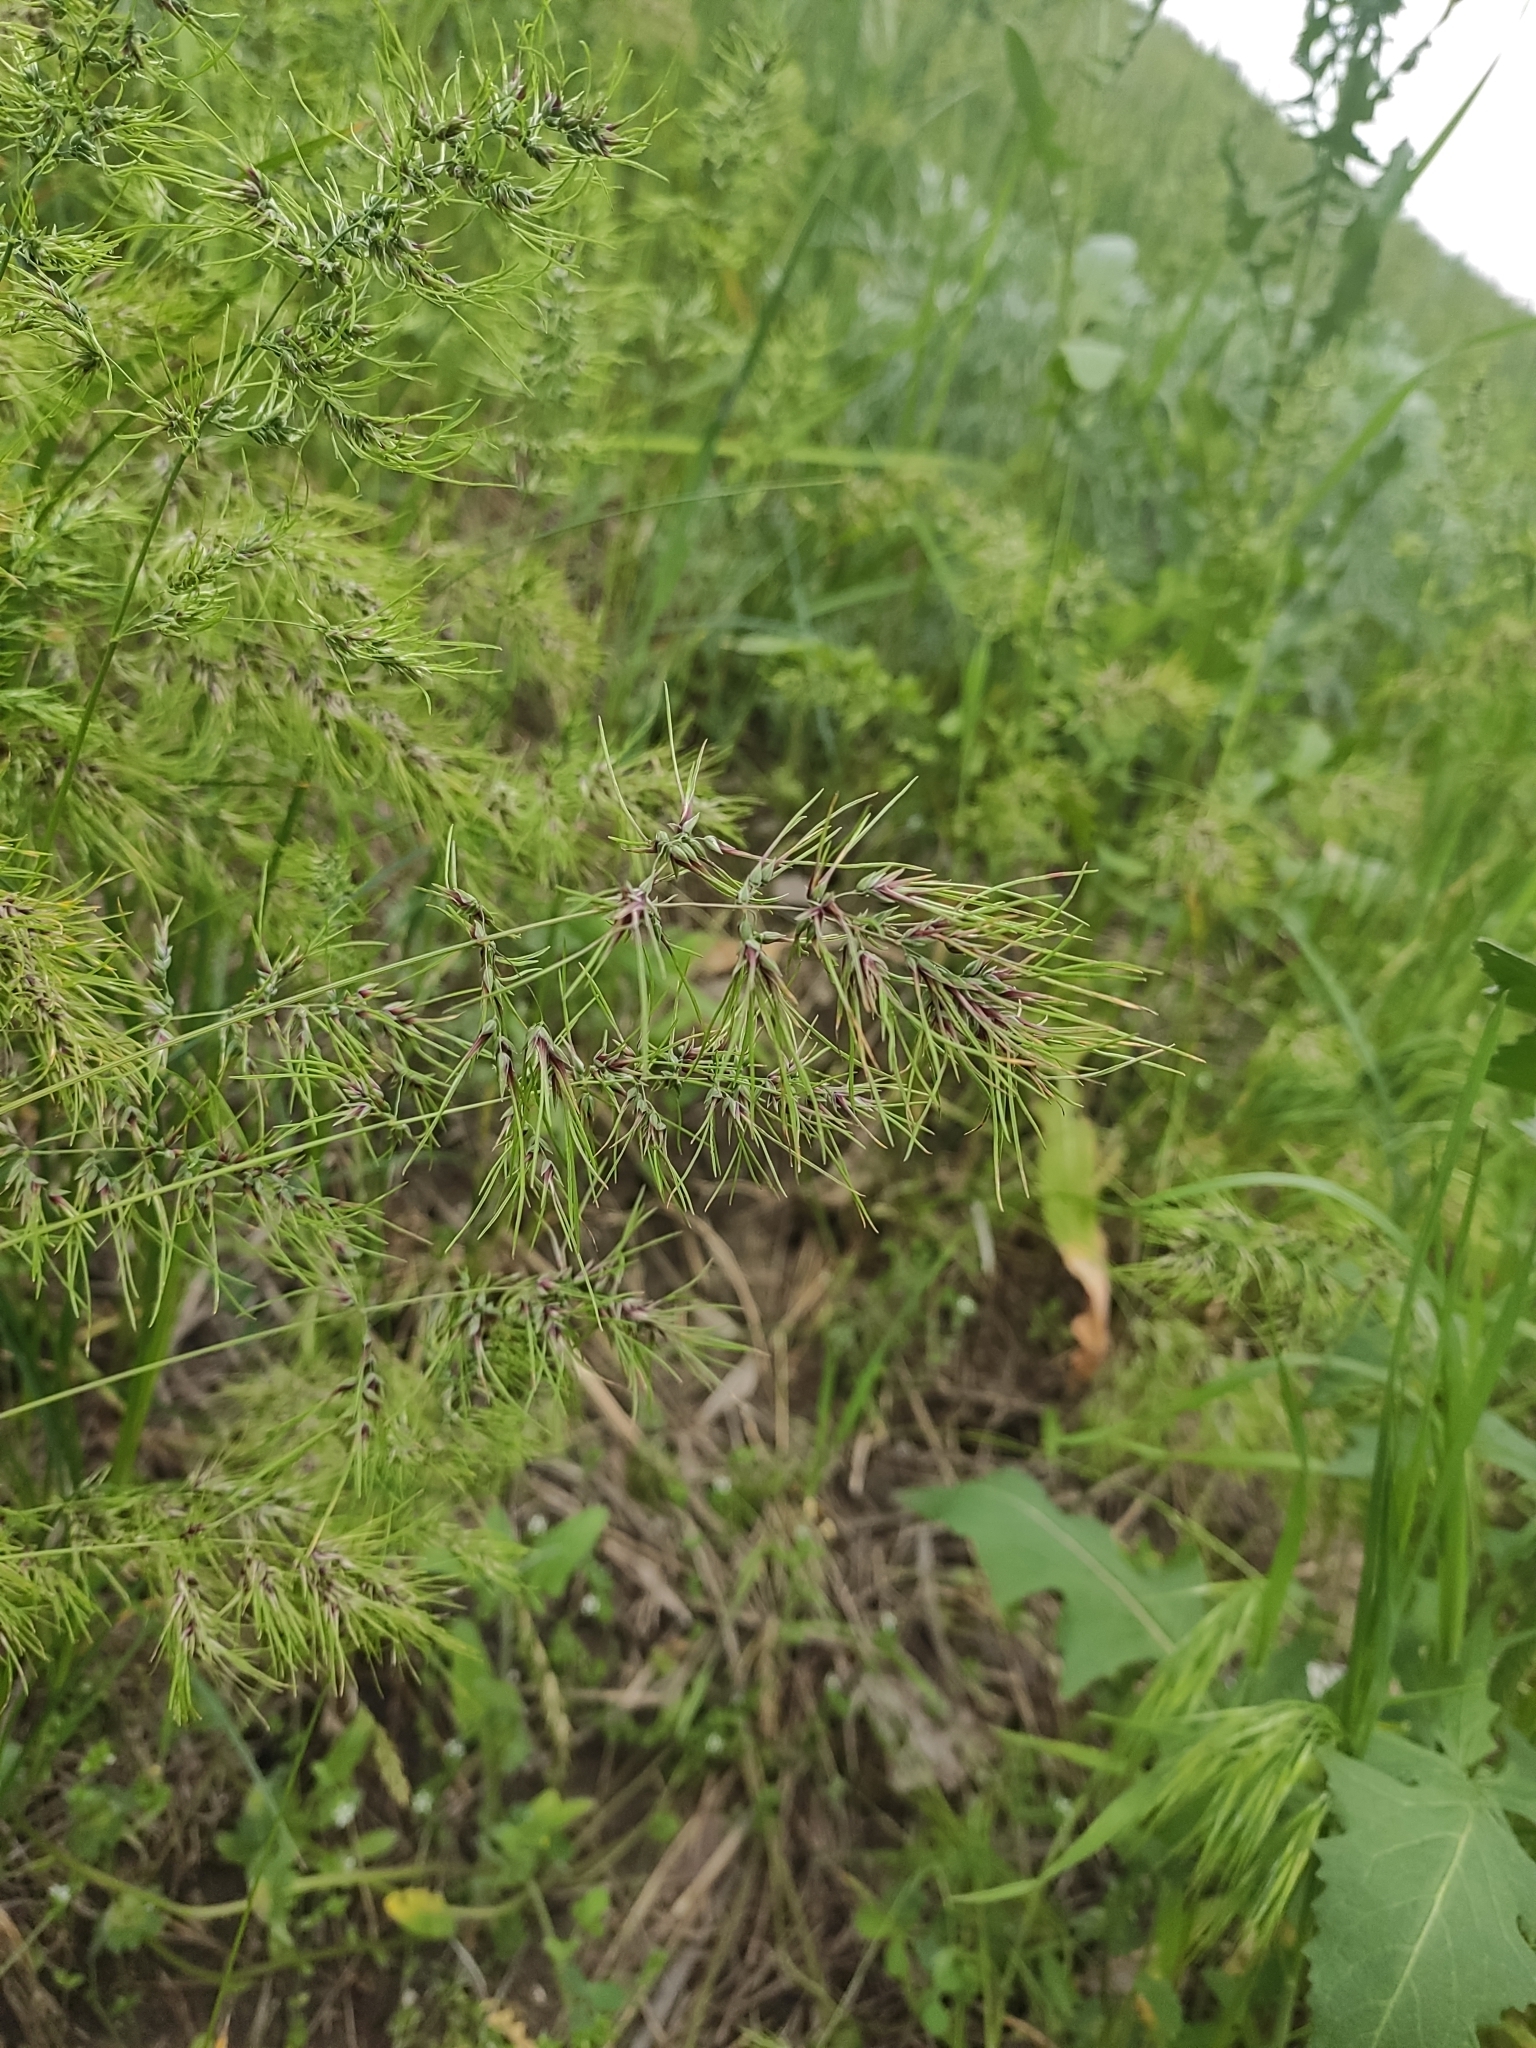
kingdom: Plantae
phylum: Tracheophyta
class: Liliopsida
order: Poales
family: Poaceae
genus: Poa
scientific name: Poa bulbosa
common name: Bulbous bluegrass
